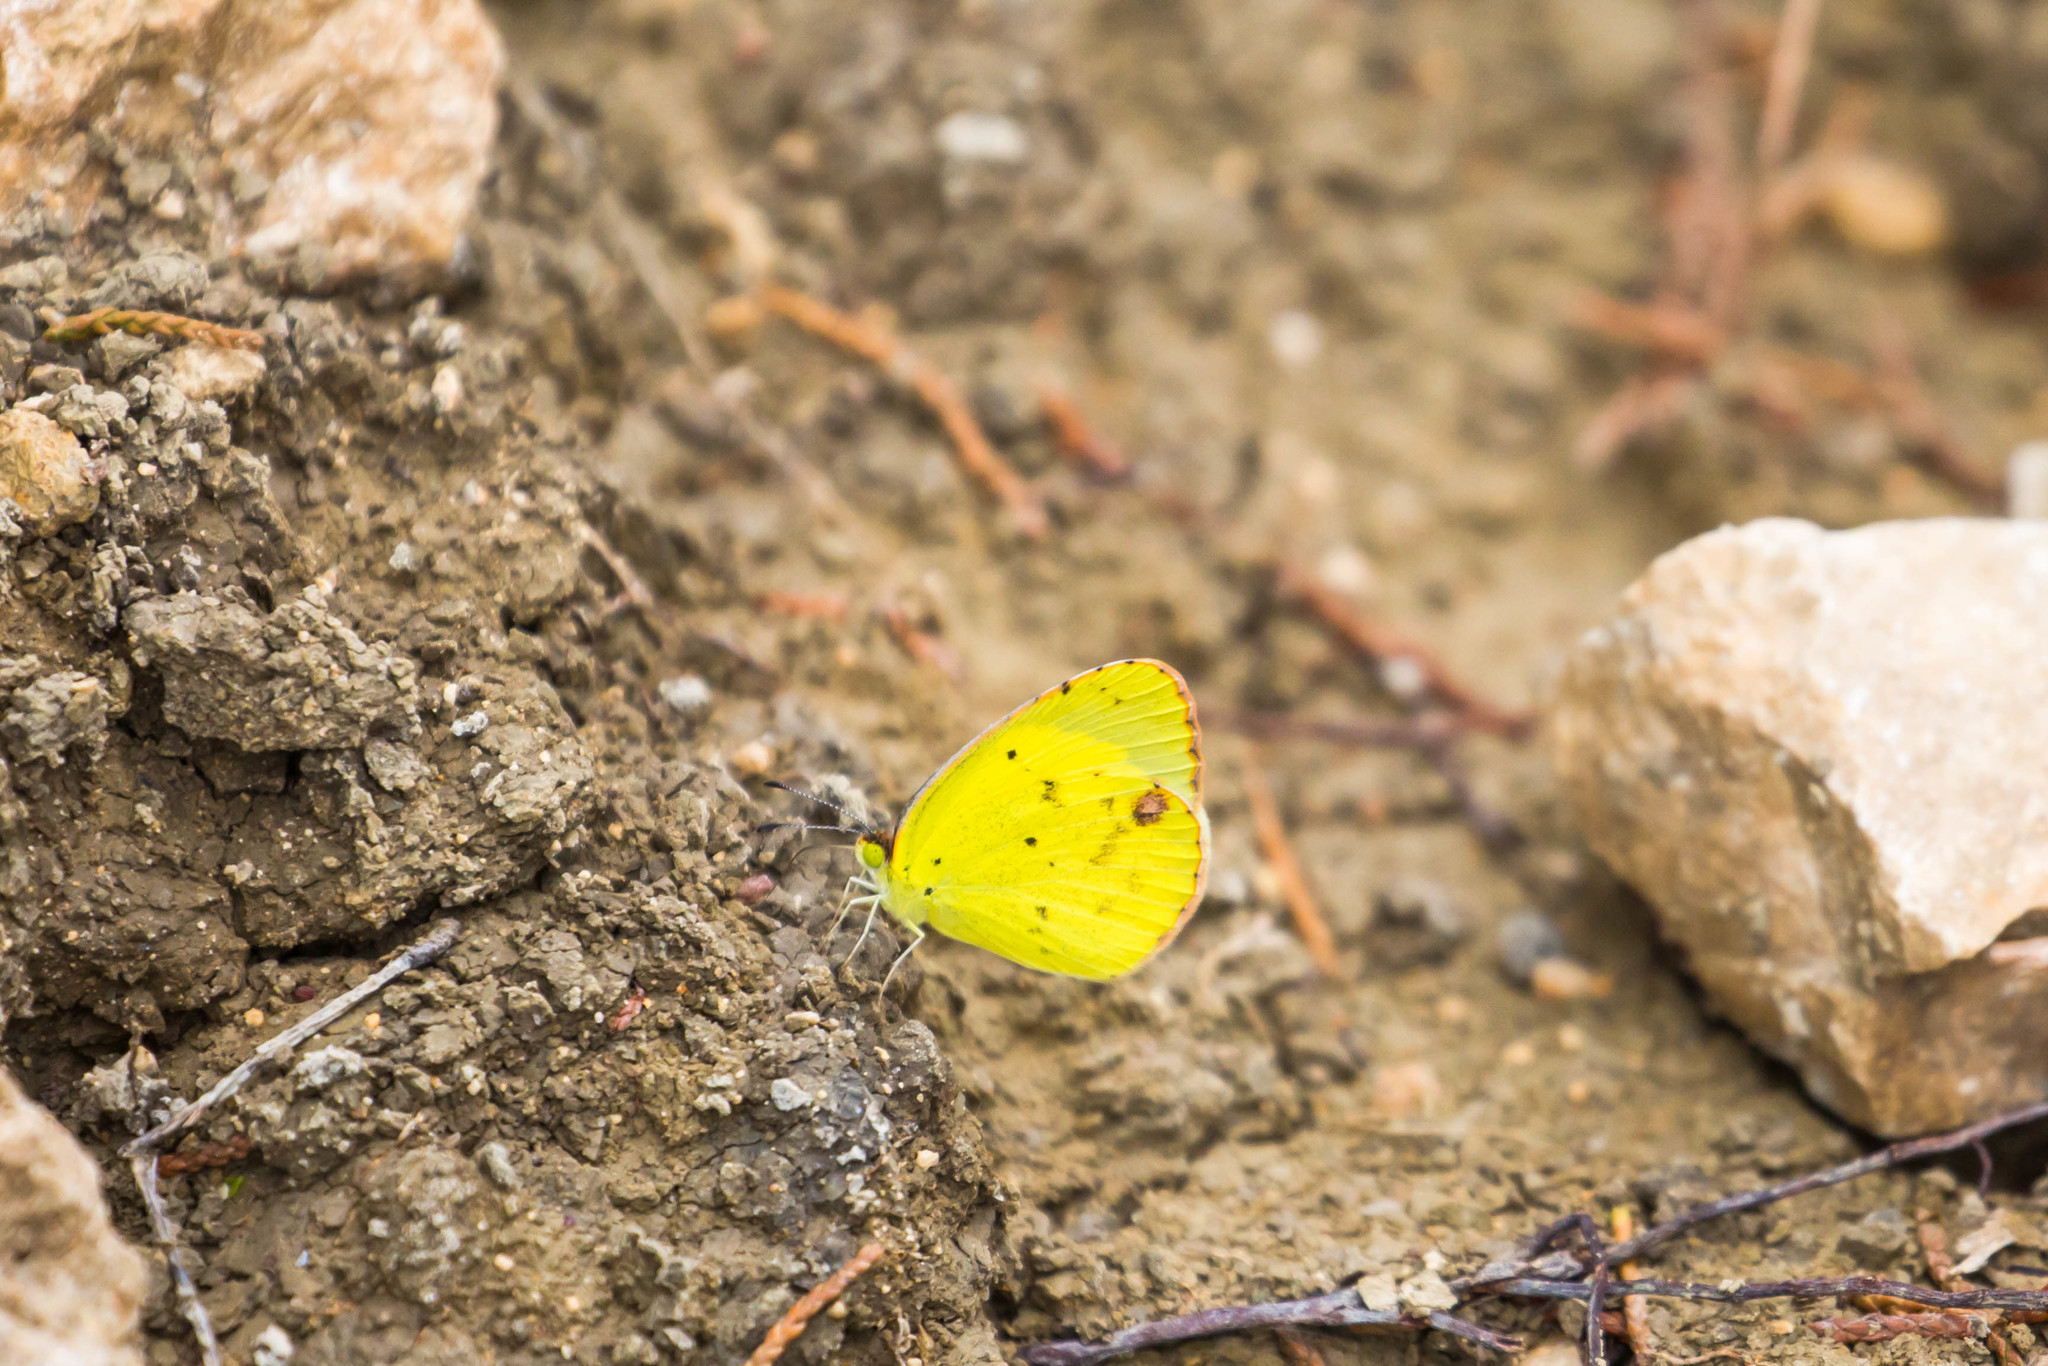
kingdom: Animalia
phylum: Arthropoda
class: Insecta
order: Lepidoptera
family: Pieridae
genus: Pyrisitia
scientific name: Pyrisitia lisa
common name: Little yellow
